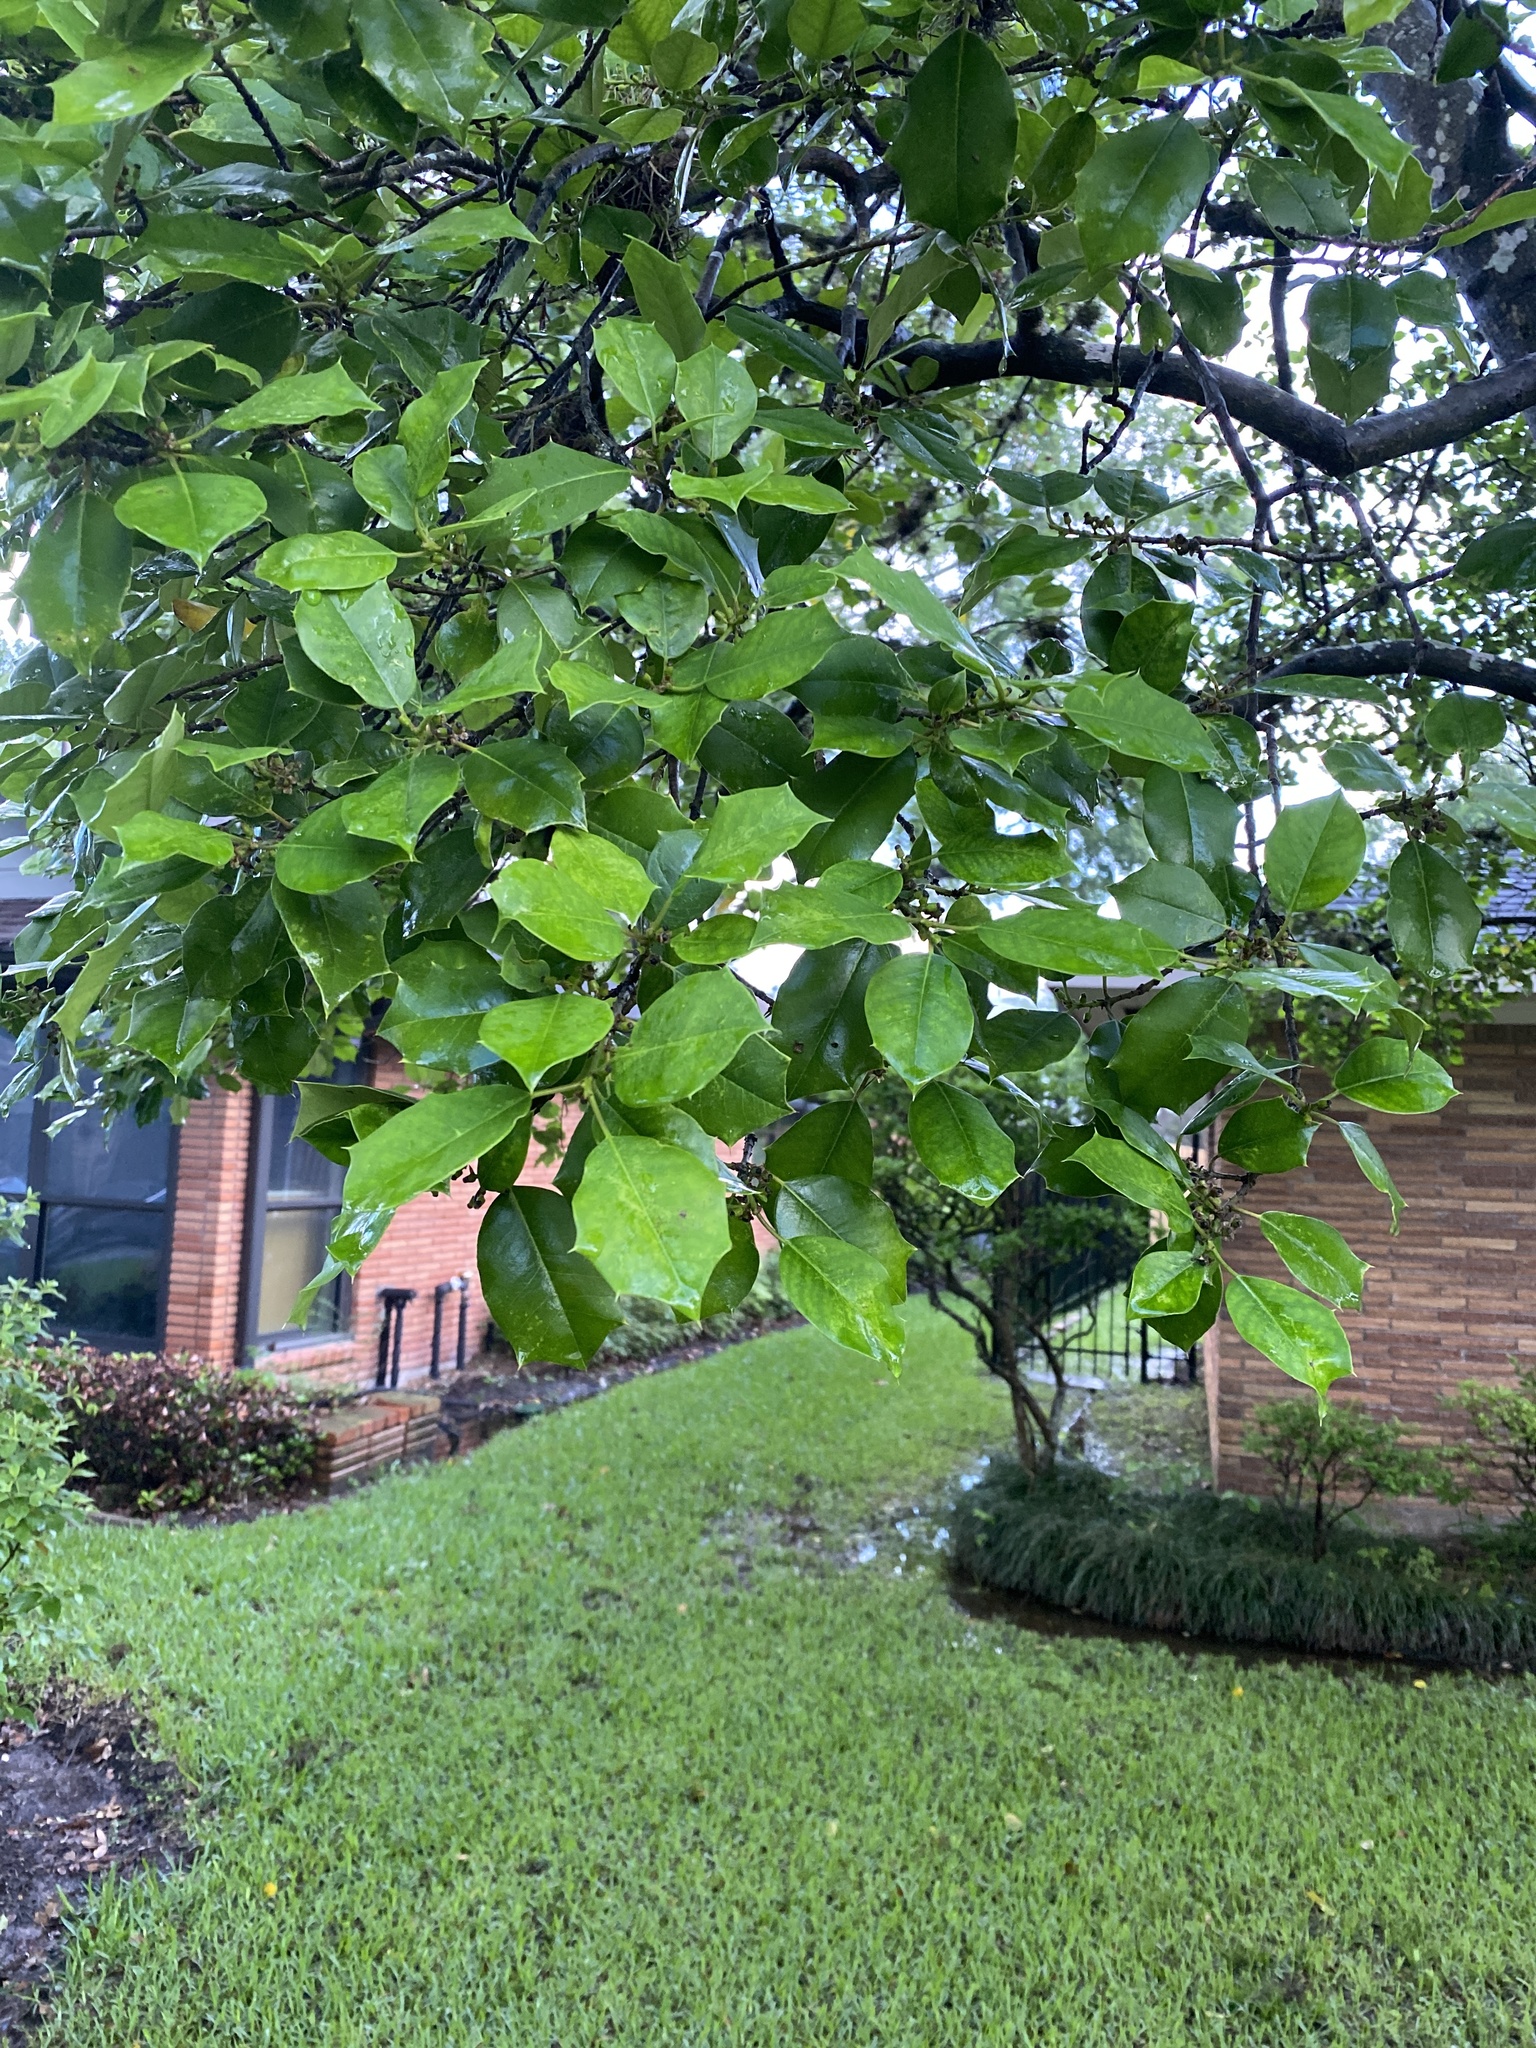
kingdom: Plantae
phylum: Tracheophyta
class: Magnoliopsida
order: Aquifoliales
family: Aquifoliaceae
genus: Ilex
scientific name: Ilex opaca
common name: American holly
